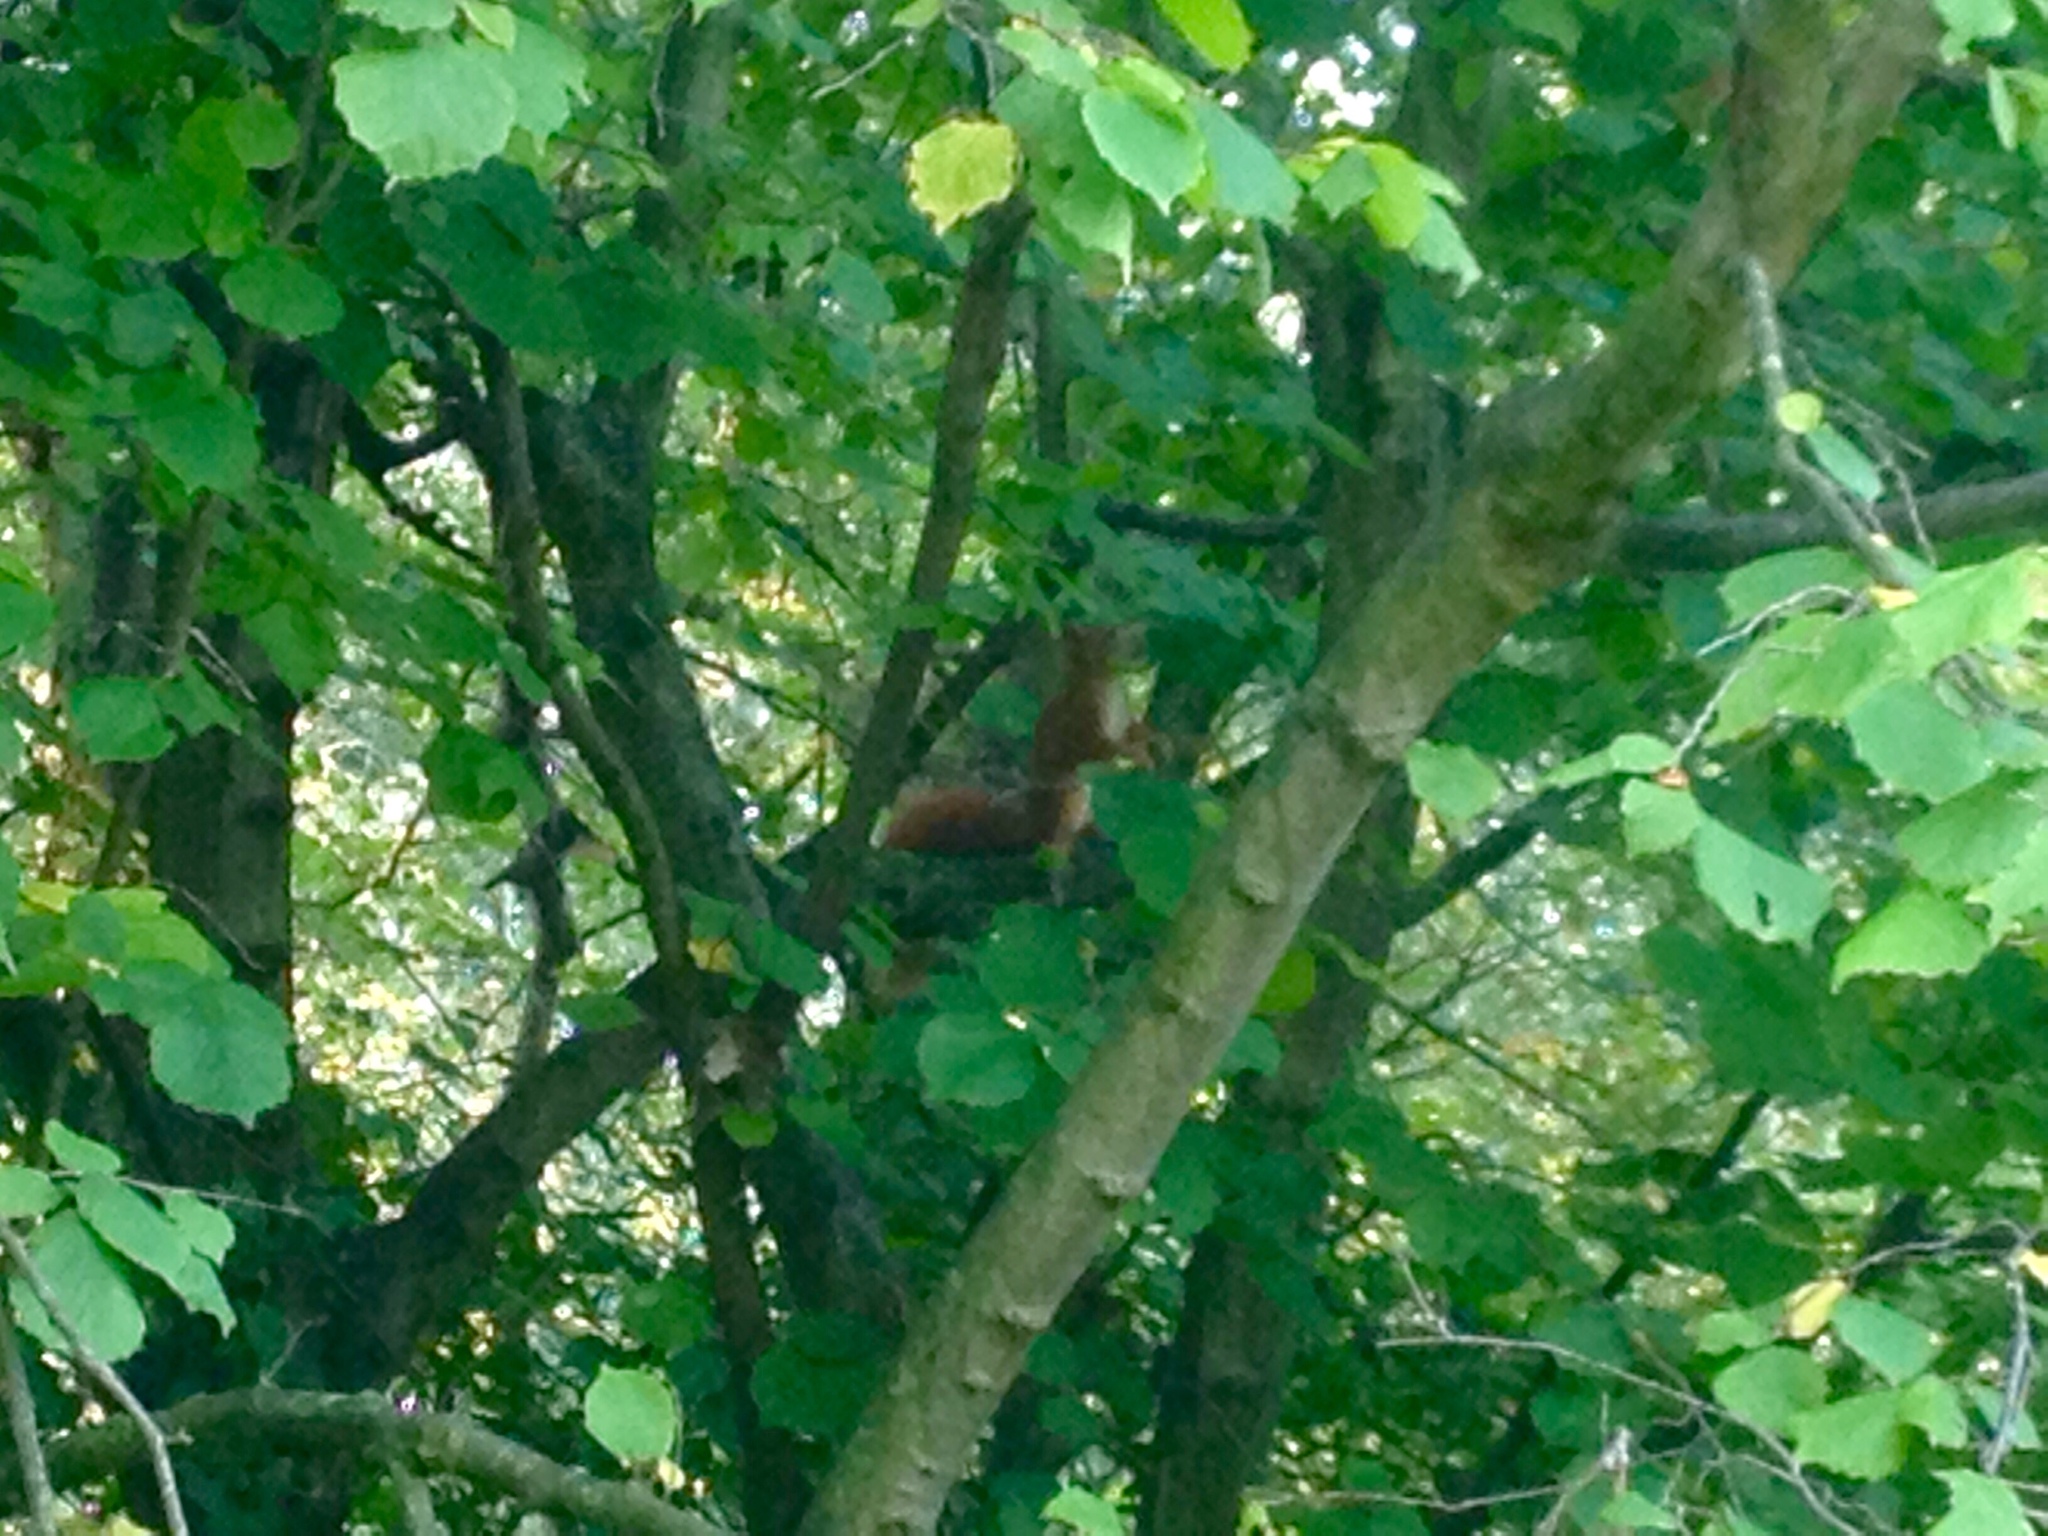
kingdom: Animalia
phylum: Chordata
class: Mammalia
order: Rodentia
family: Sciuridae
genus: Sciurus
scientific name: Sciurus vulgaris
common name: Eurasian red squirrel
